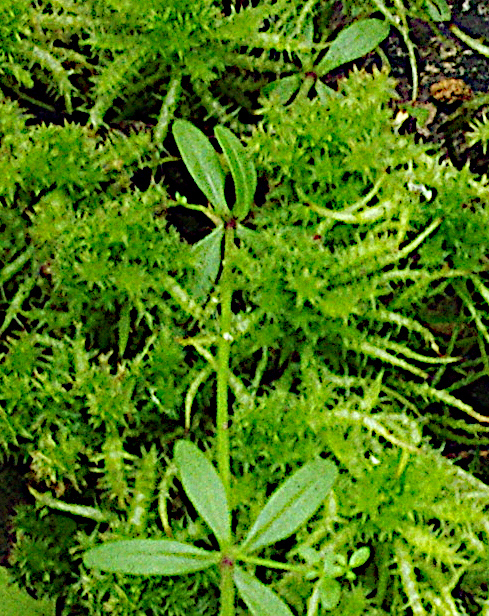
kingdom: Plantae
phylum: Tracheophyta
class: Magnoliopsida
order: Gentianales
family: Rubiaceae
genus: Galium
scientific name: Galium palustre
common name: Common marsh-bedstraw
